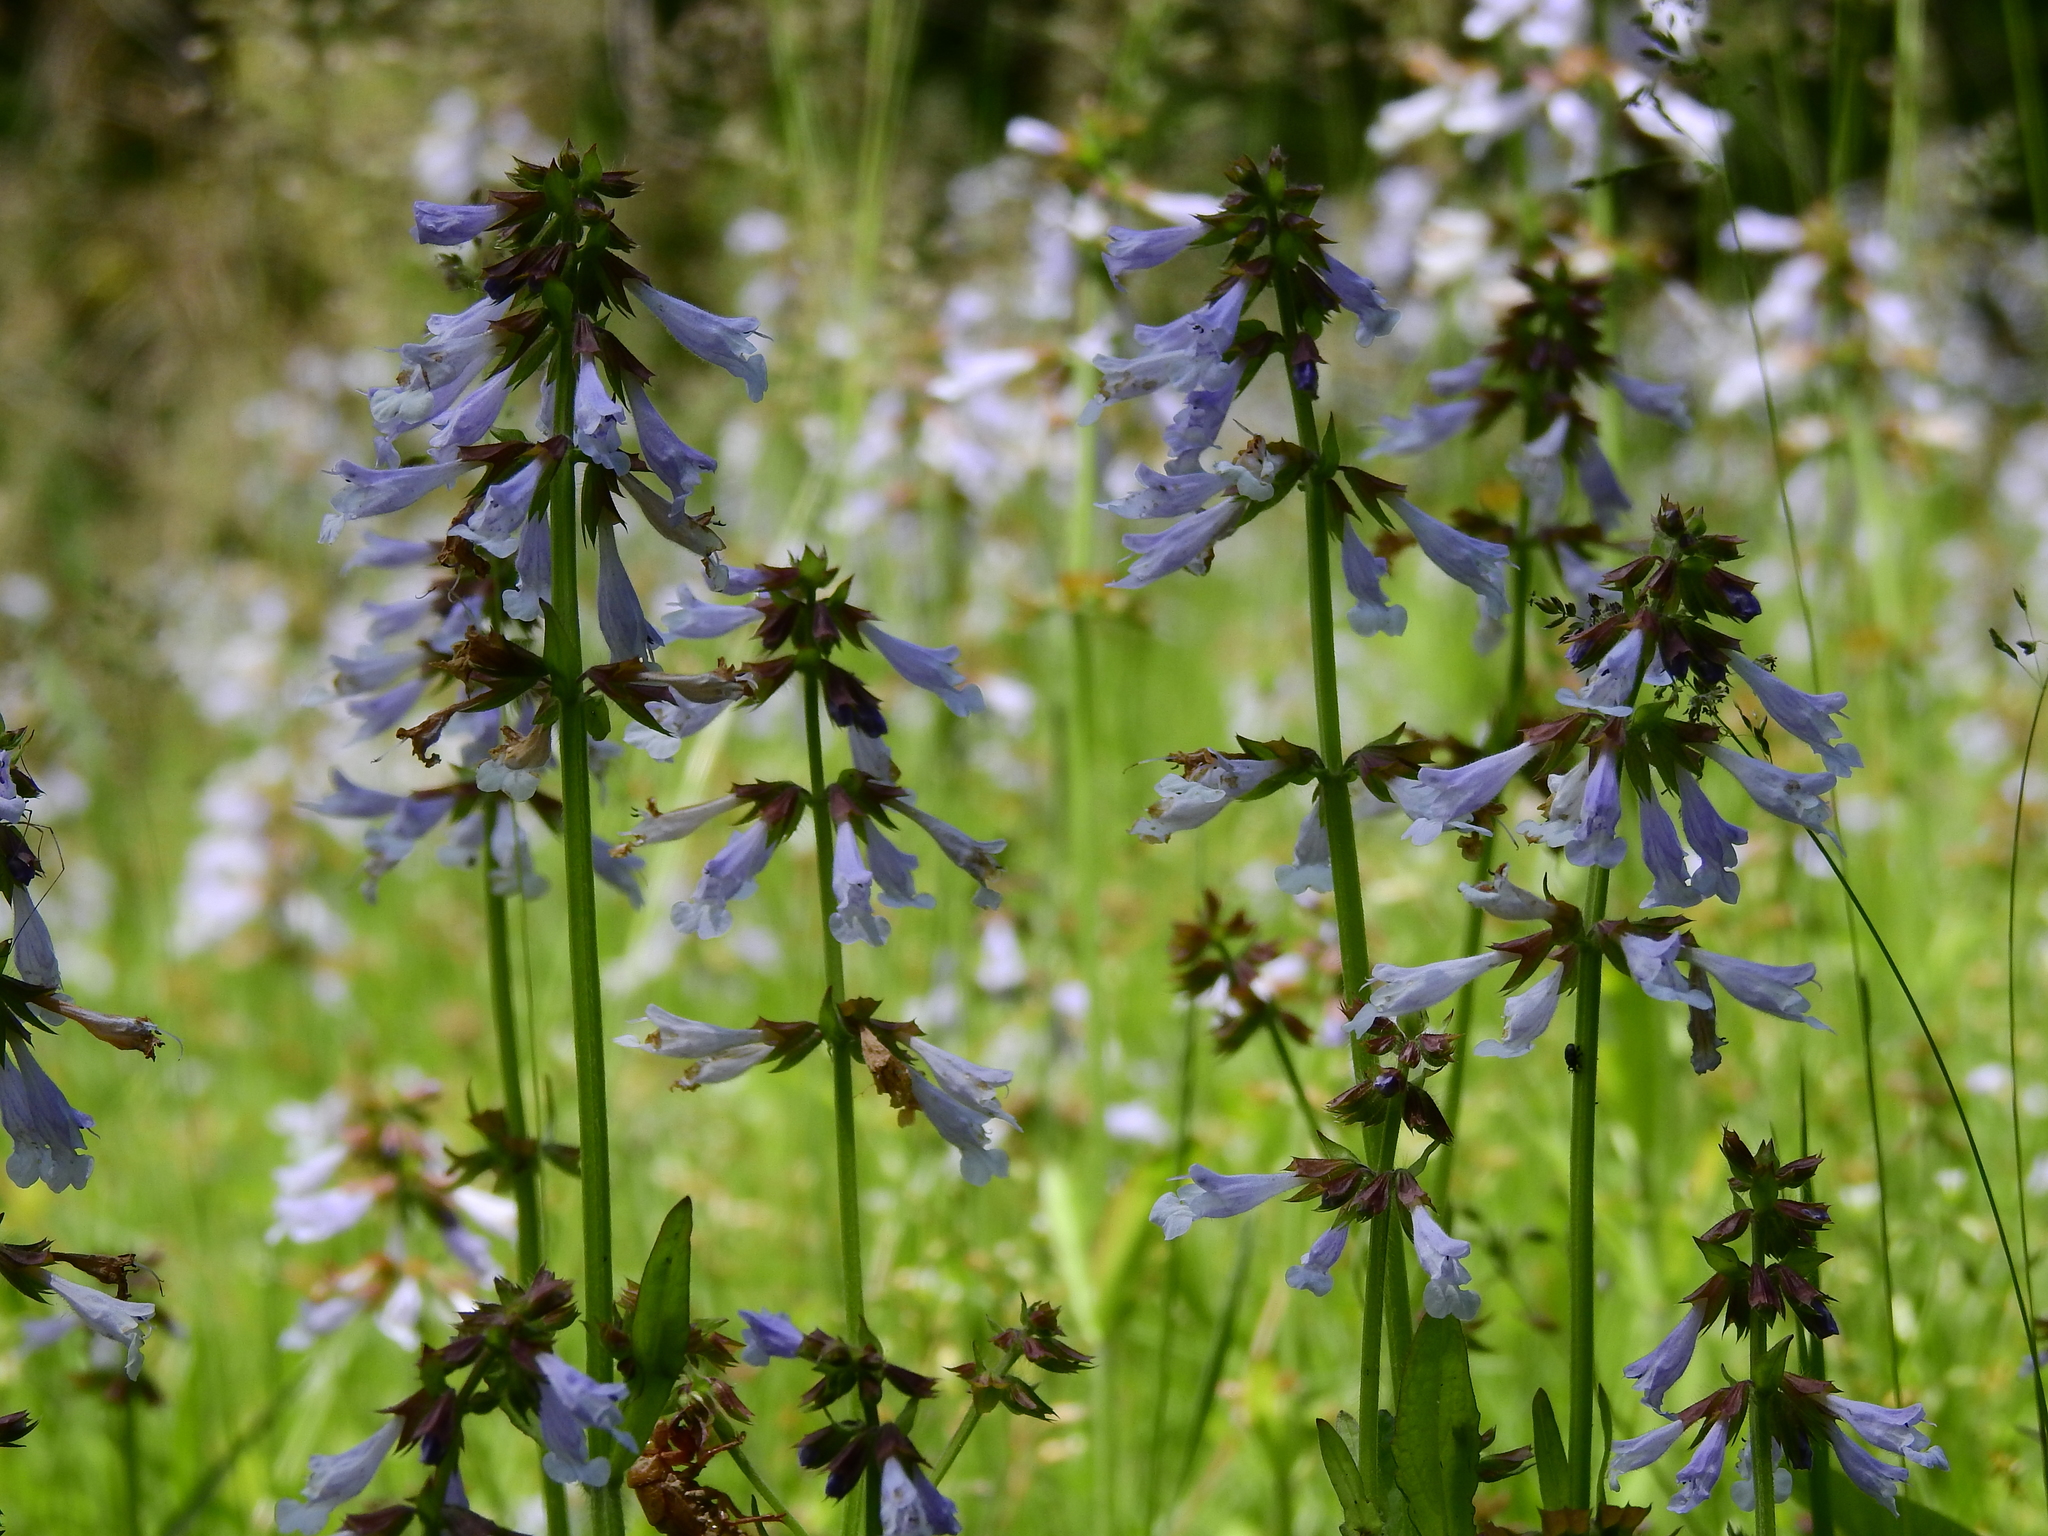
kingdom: Plantae
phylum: Tracheophyta
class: Magnoliopsida
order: Lamiales
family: Lamiaceae
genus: Salvia
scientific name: Salvia lyrata
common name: Cancerweed
